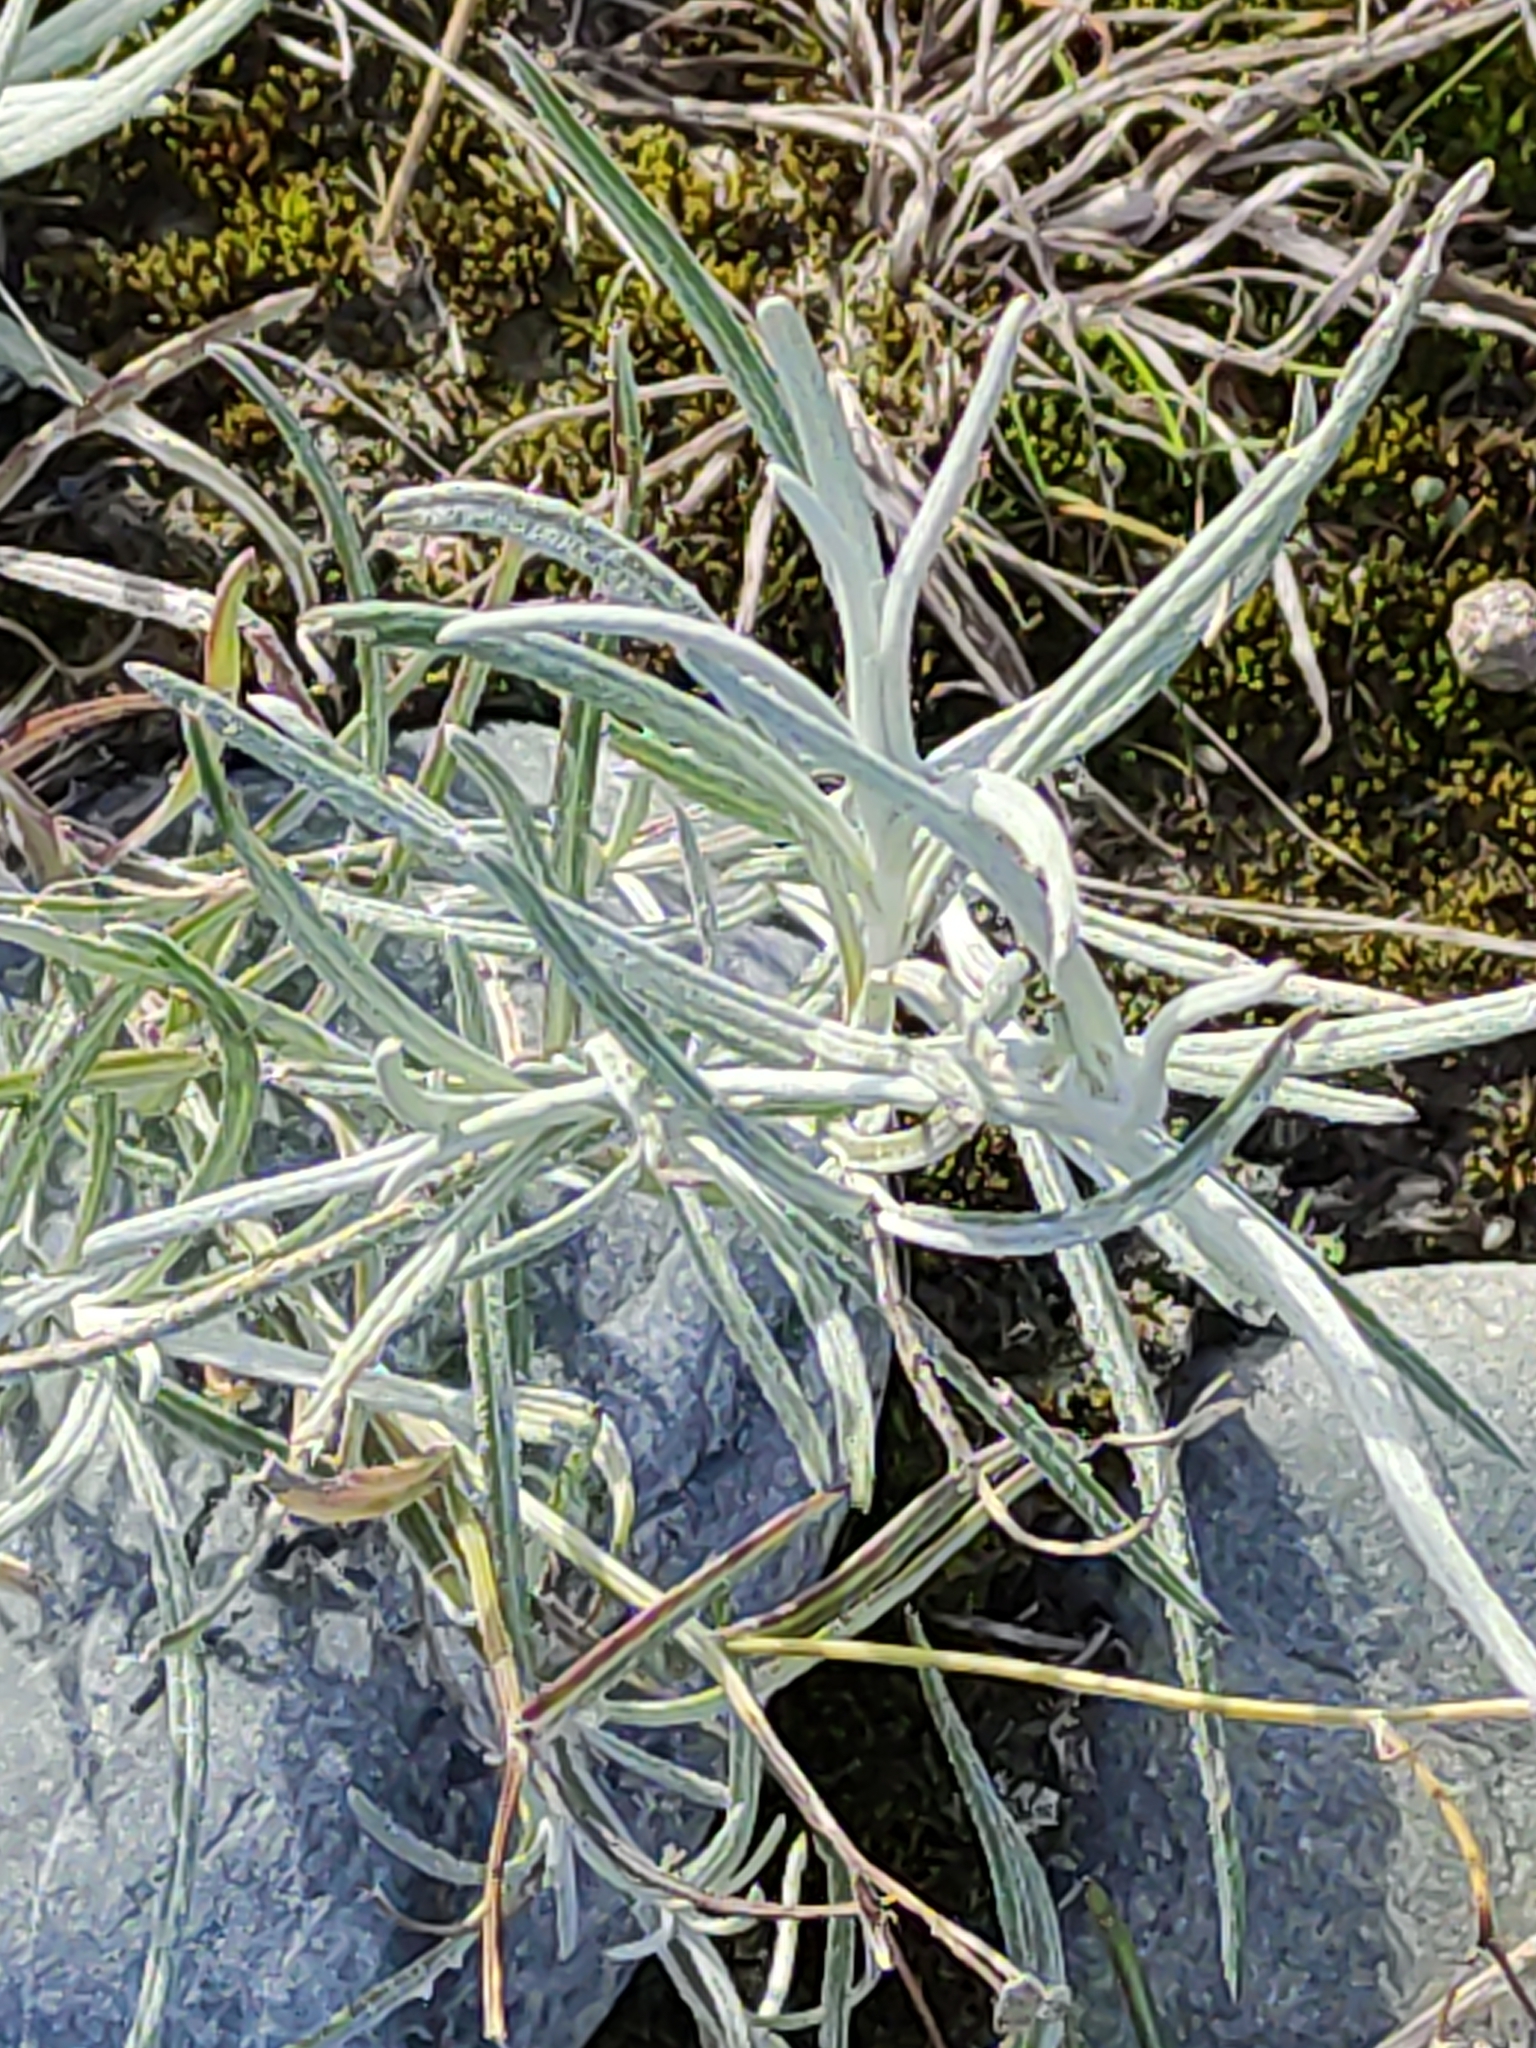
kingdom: Plantae
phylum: Tracheophyta
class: Magnoliopsida
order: Asterales
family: Asteraceae
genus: Senecio
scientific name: Senecio quadridentatus
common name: Cotton fireweed
